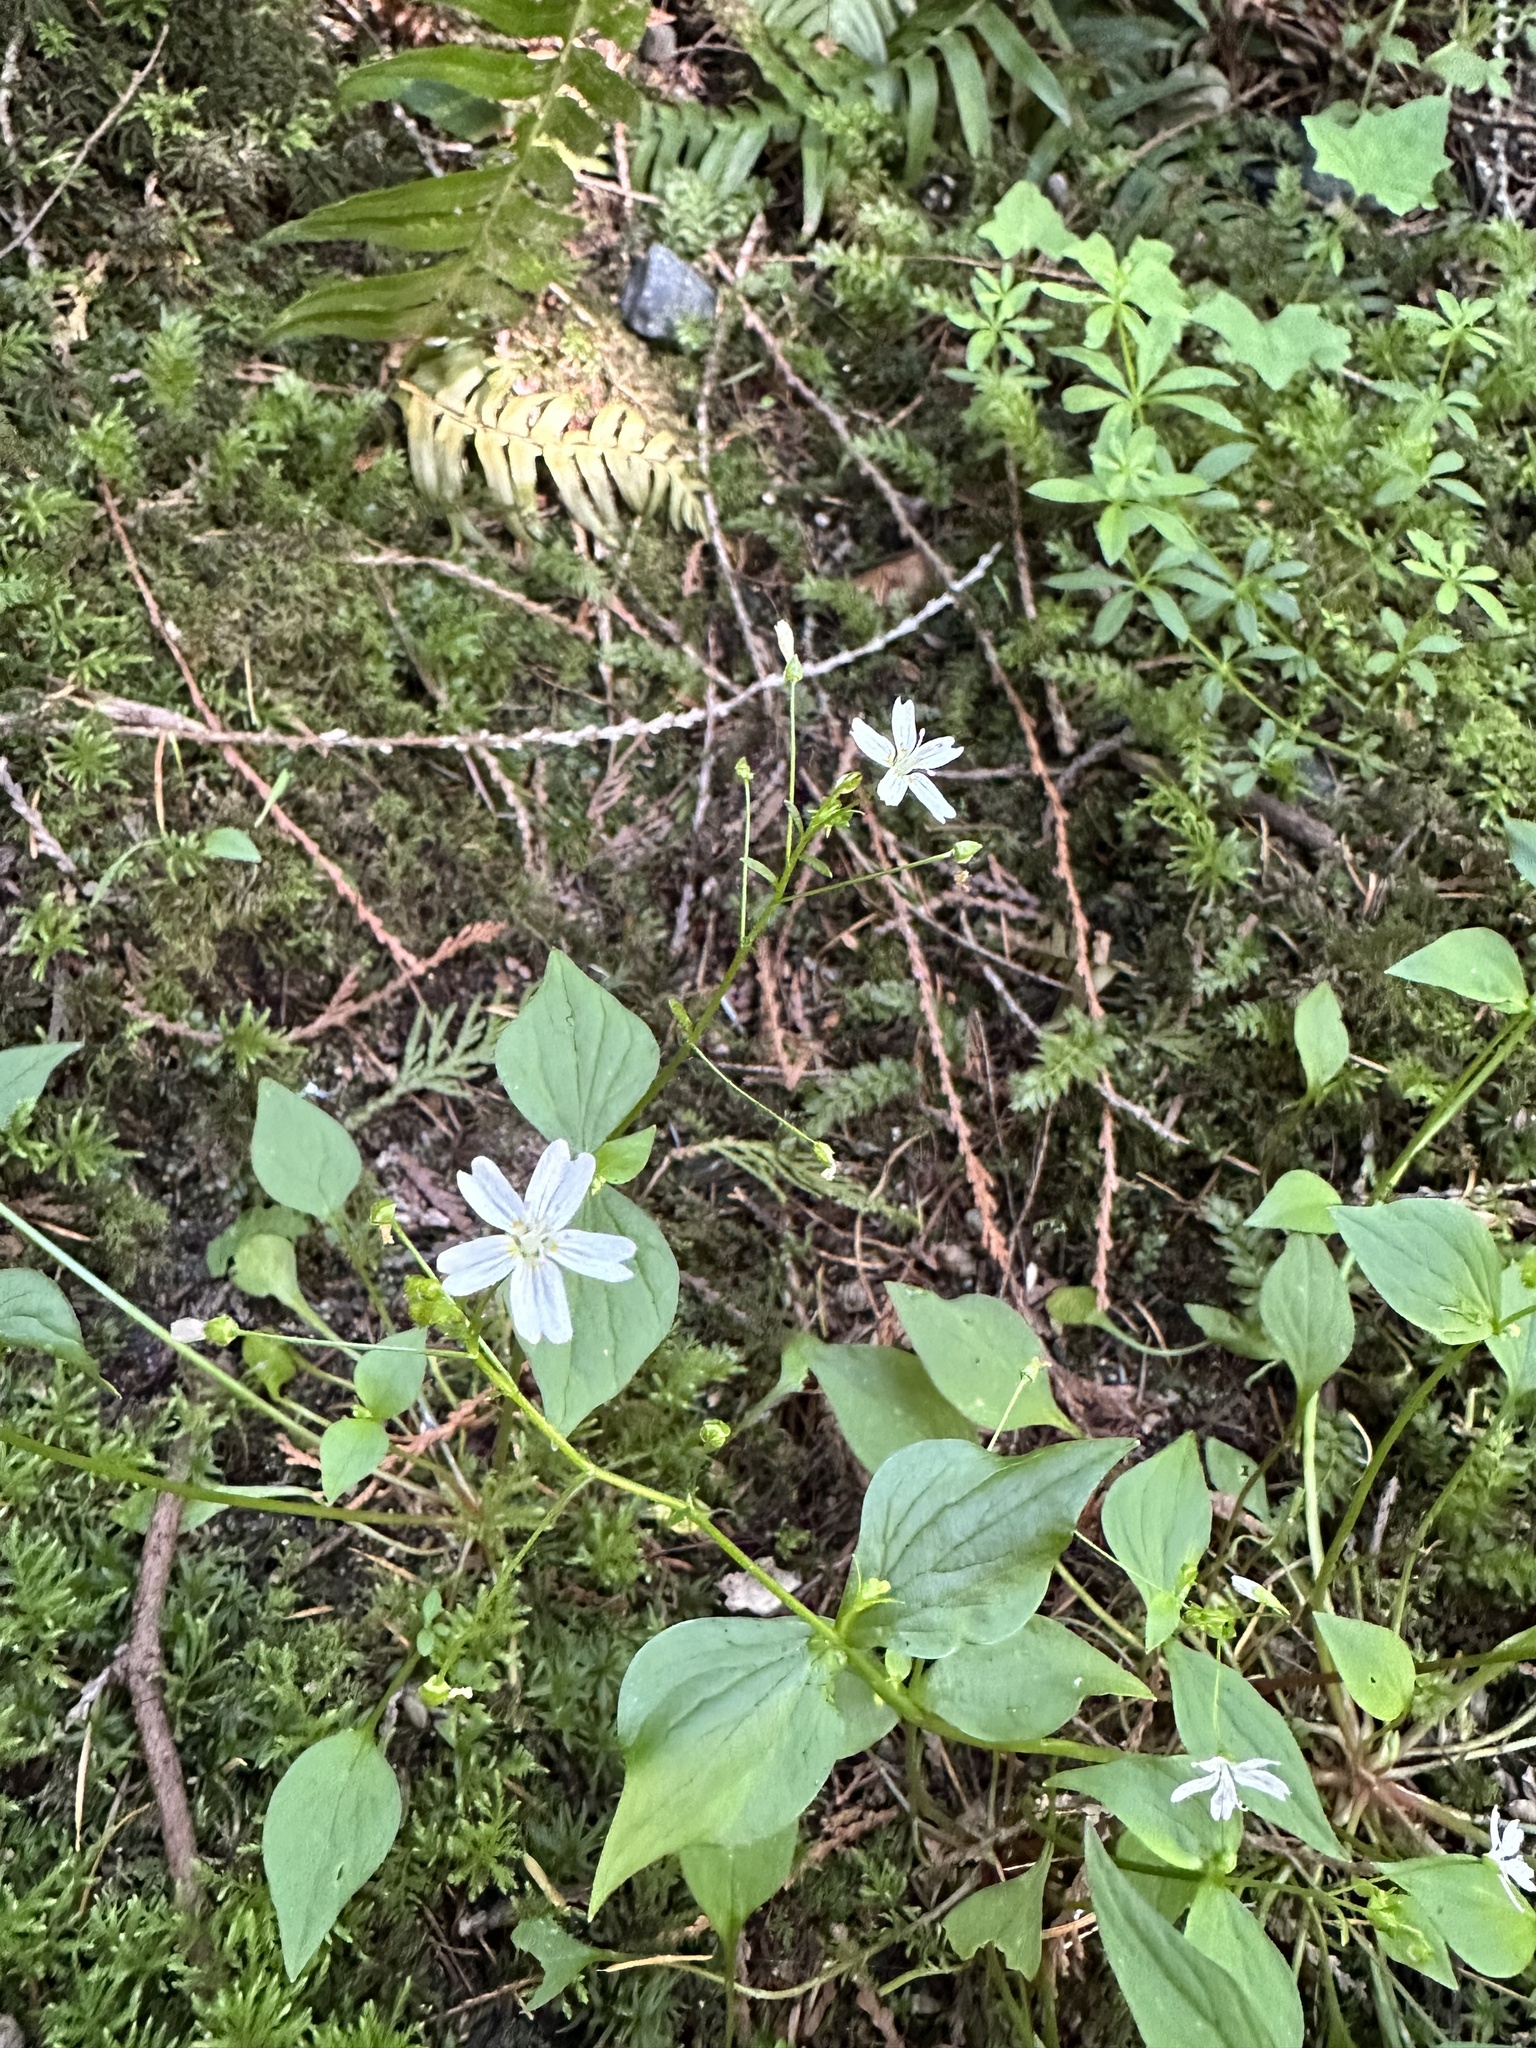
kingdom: Plantae
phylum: Tracheophyta
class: Magnoliopsida
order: Caryophyllales
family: Montiaceae
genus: Claytonia
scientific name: Claytonia sibirica
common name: Pink purslane
